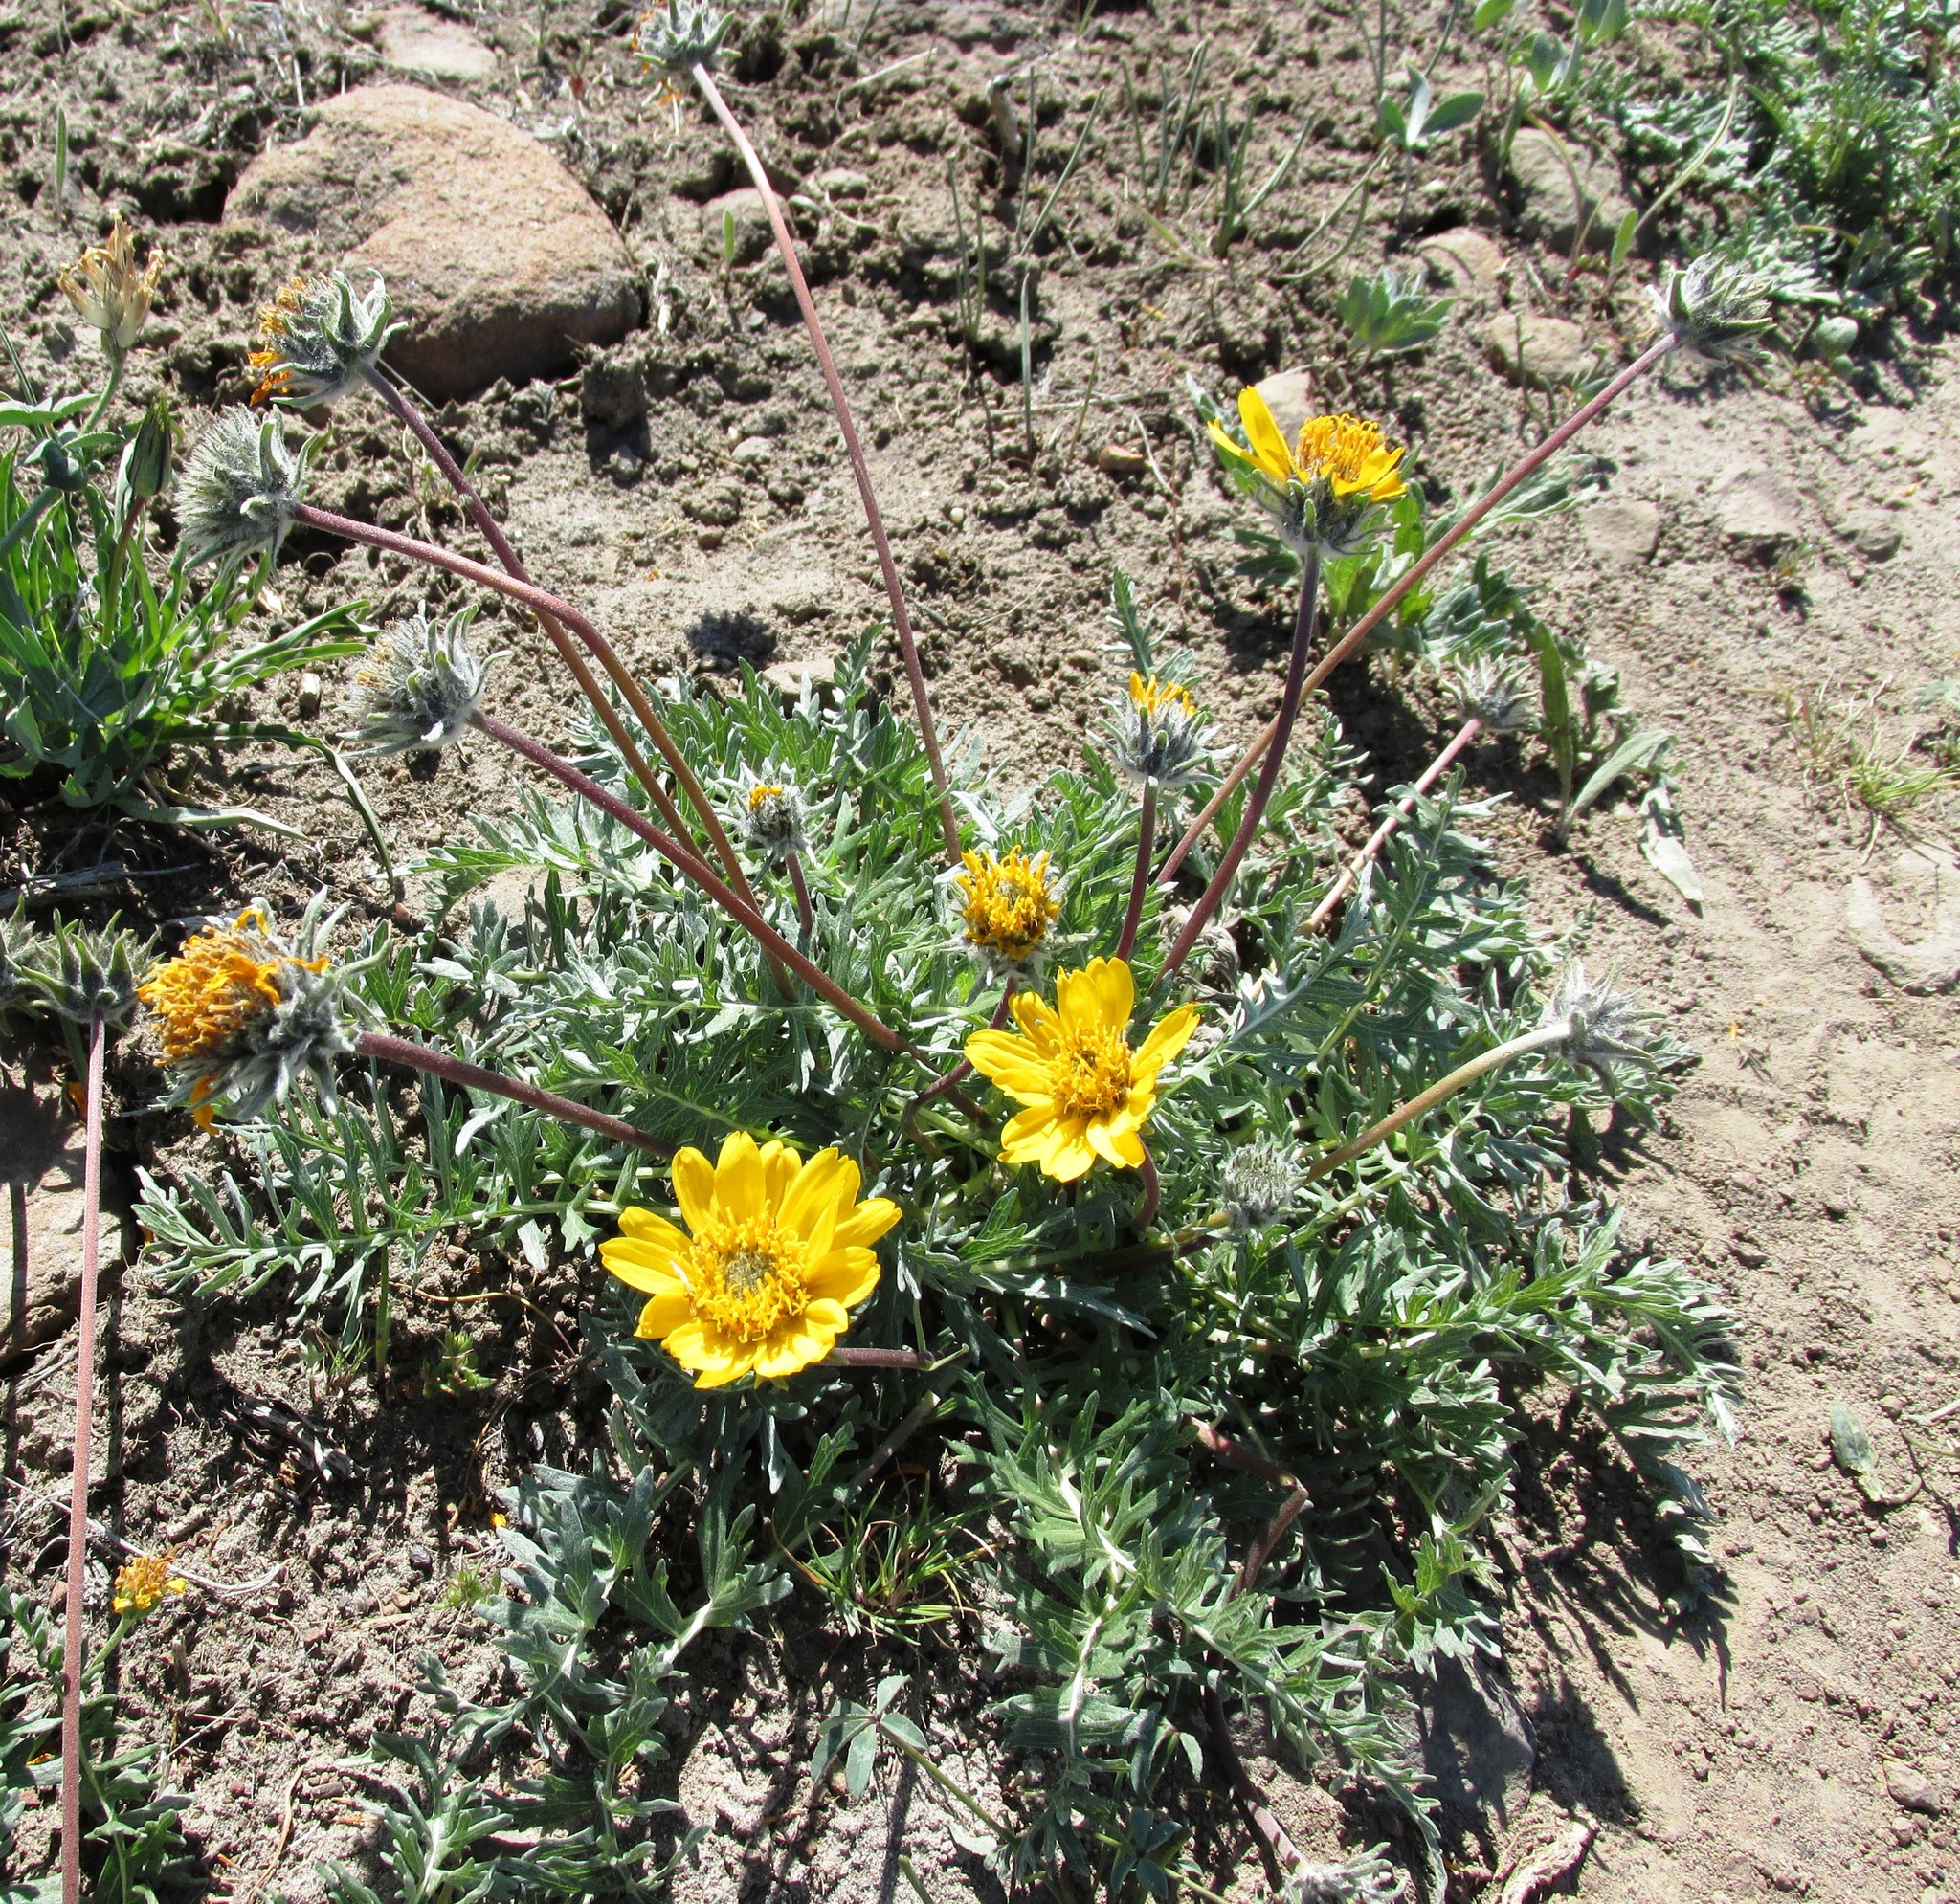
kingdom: Plantae
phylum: Tracheophyta
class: Magnoliopsida
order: Asterales
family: Asteraceae
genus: Balsamorhiza
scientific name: Balsamorhiza hookeri
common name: Hooker's balsamroot
